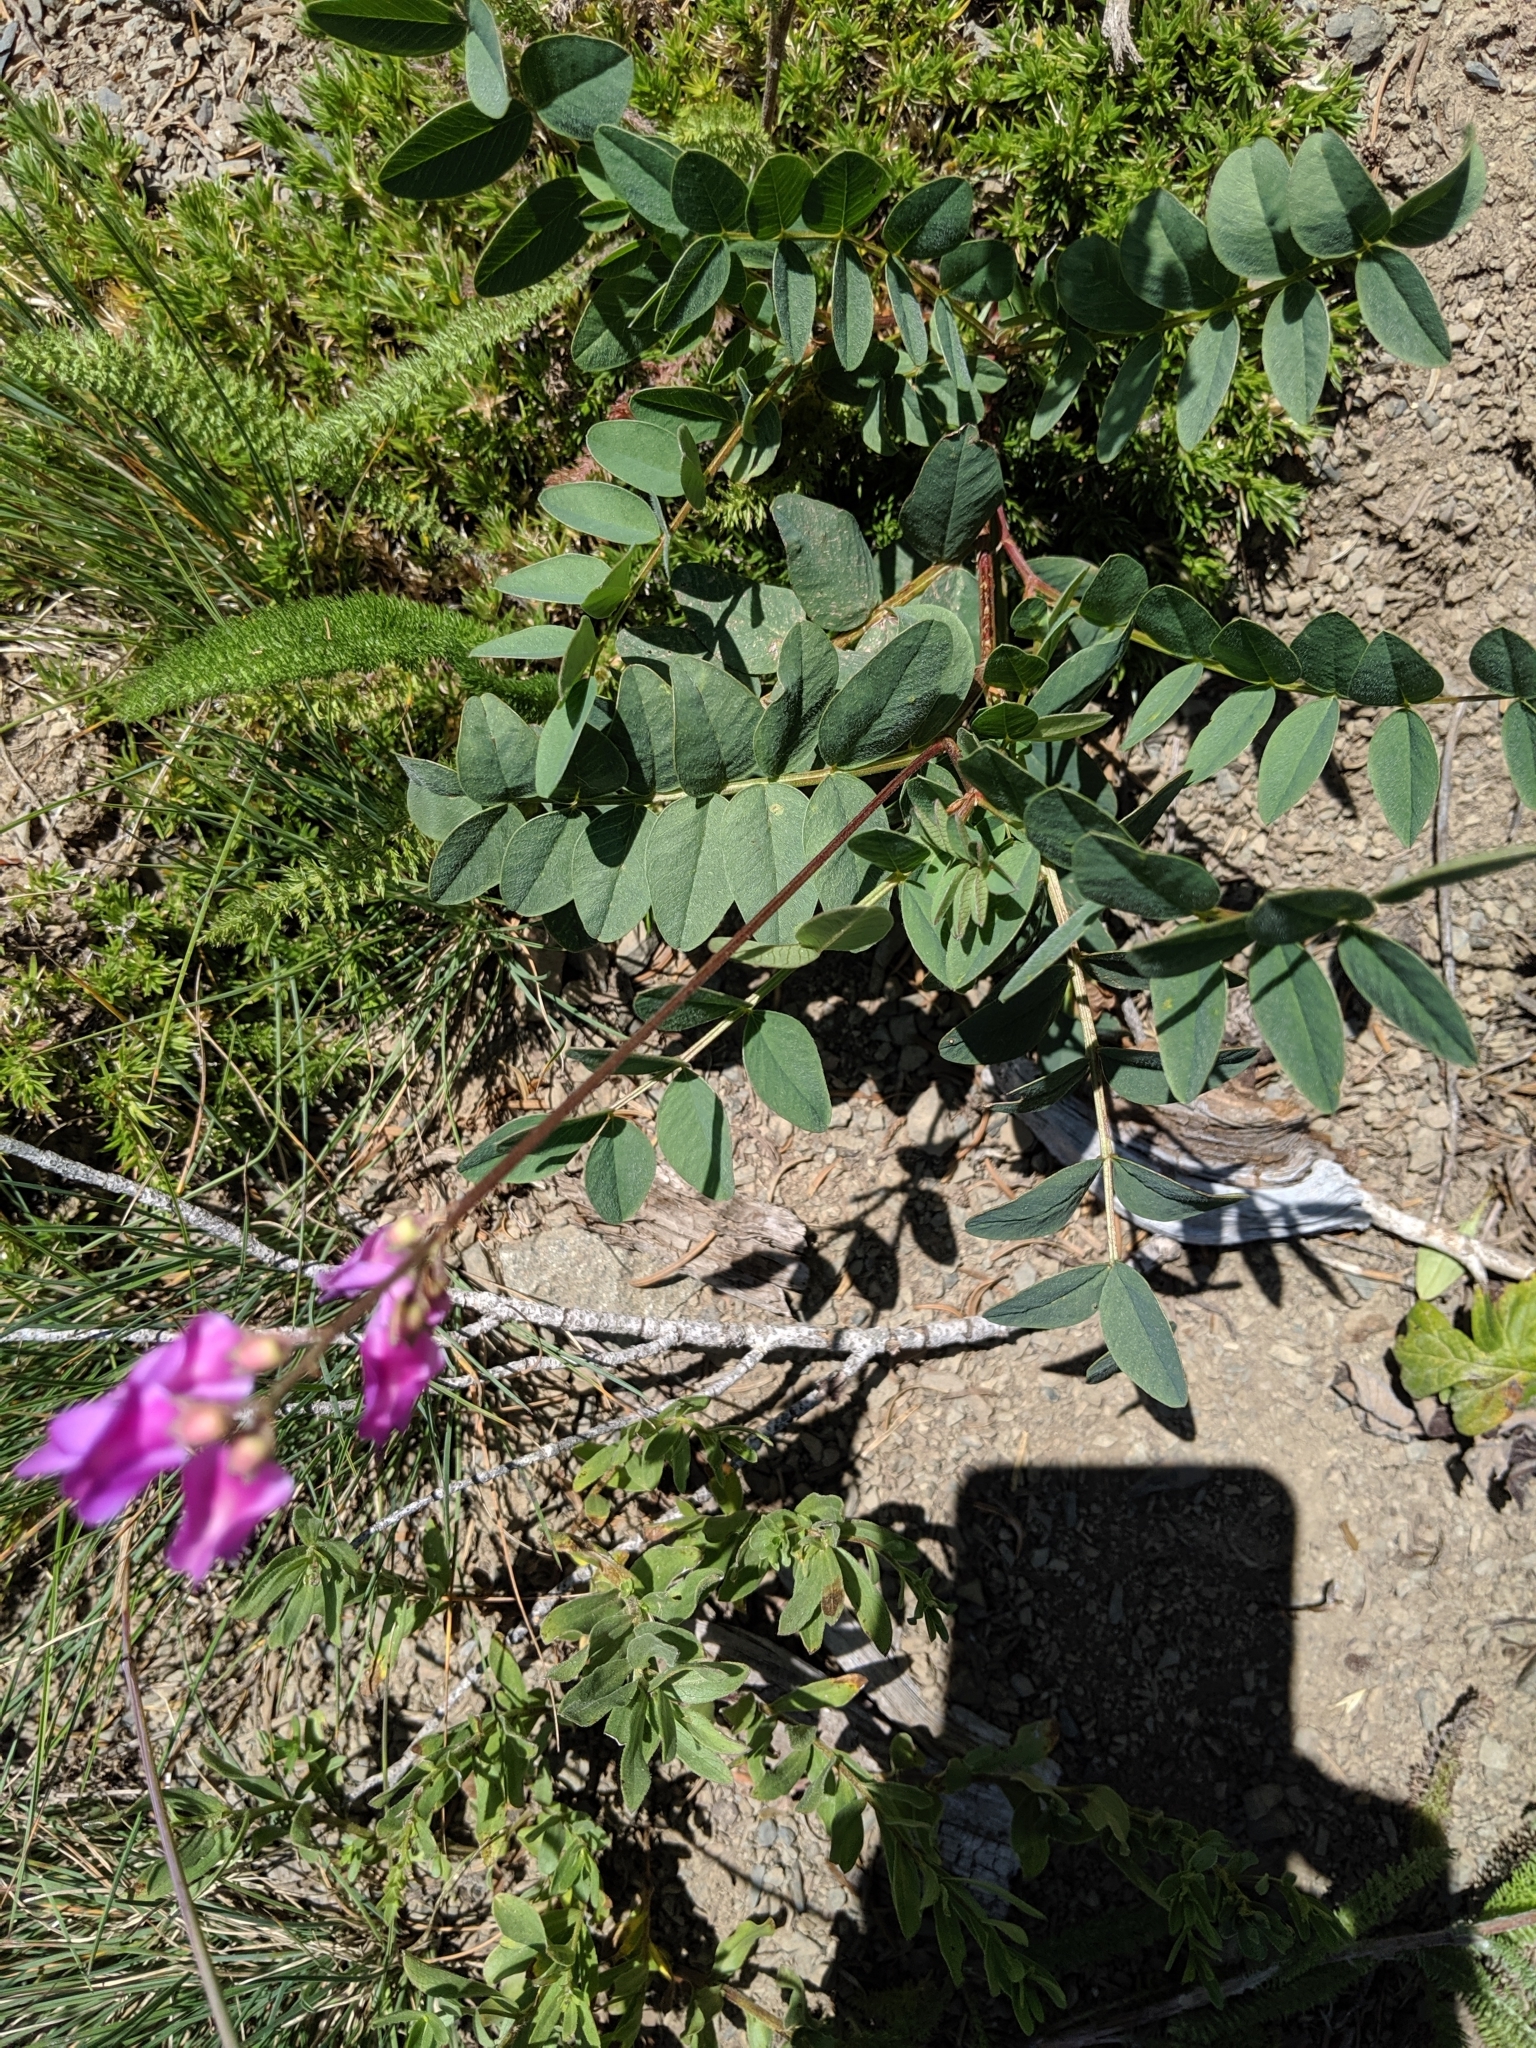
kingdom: Plantae
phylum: Tracheophyta
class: Magnoliopsida
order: Fabales
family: Fabaceae
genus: Hedysarum
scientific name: Hedysarum occidentale
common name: Western hedysarum
